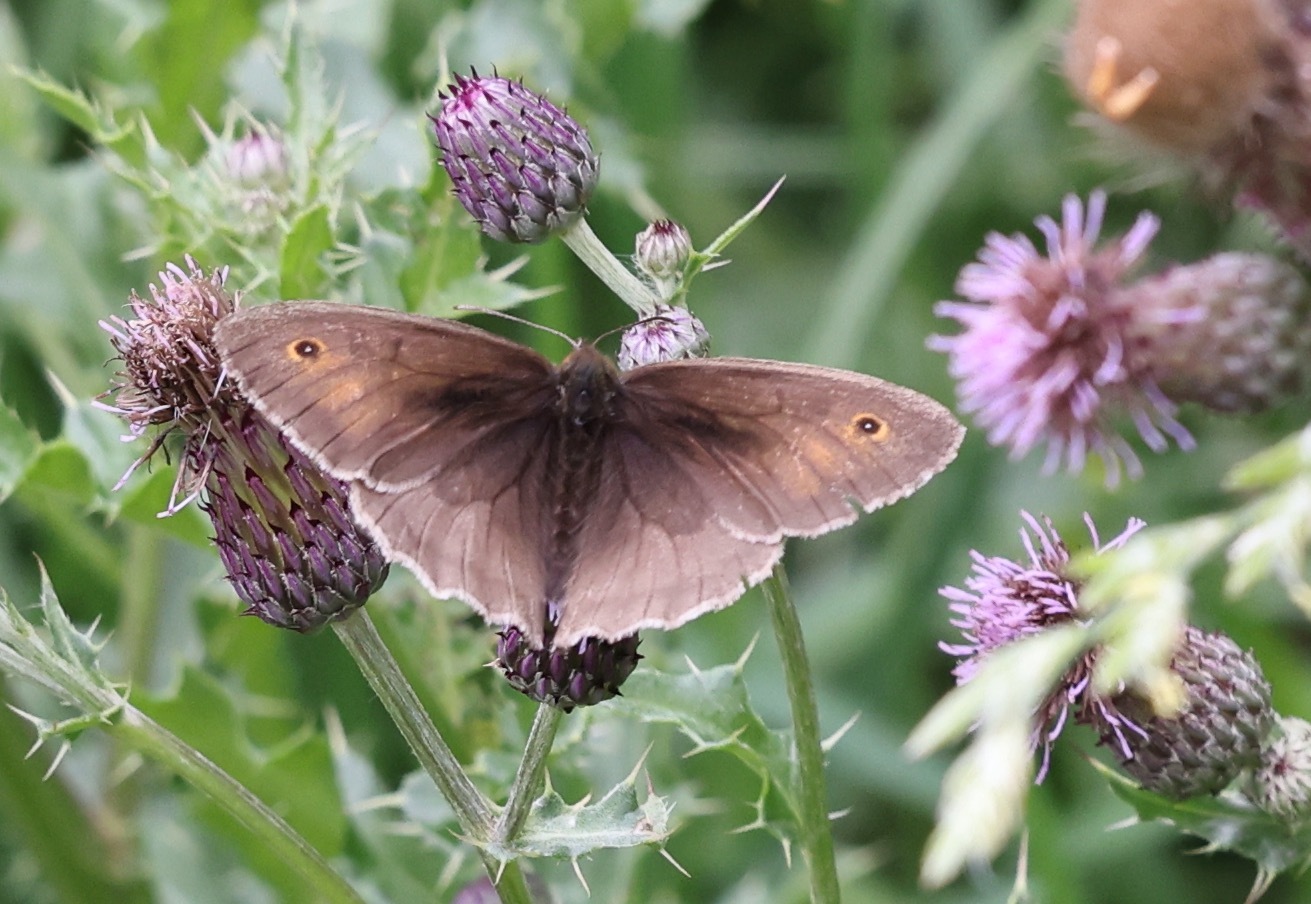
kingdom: Animalia
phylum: Arthropoda
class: Insecta
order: Lepidoptera
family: Nymphalidae
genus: Maniola
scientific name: Maniola jurtina
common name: Meadow brown
